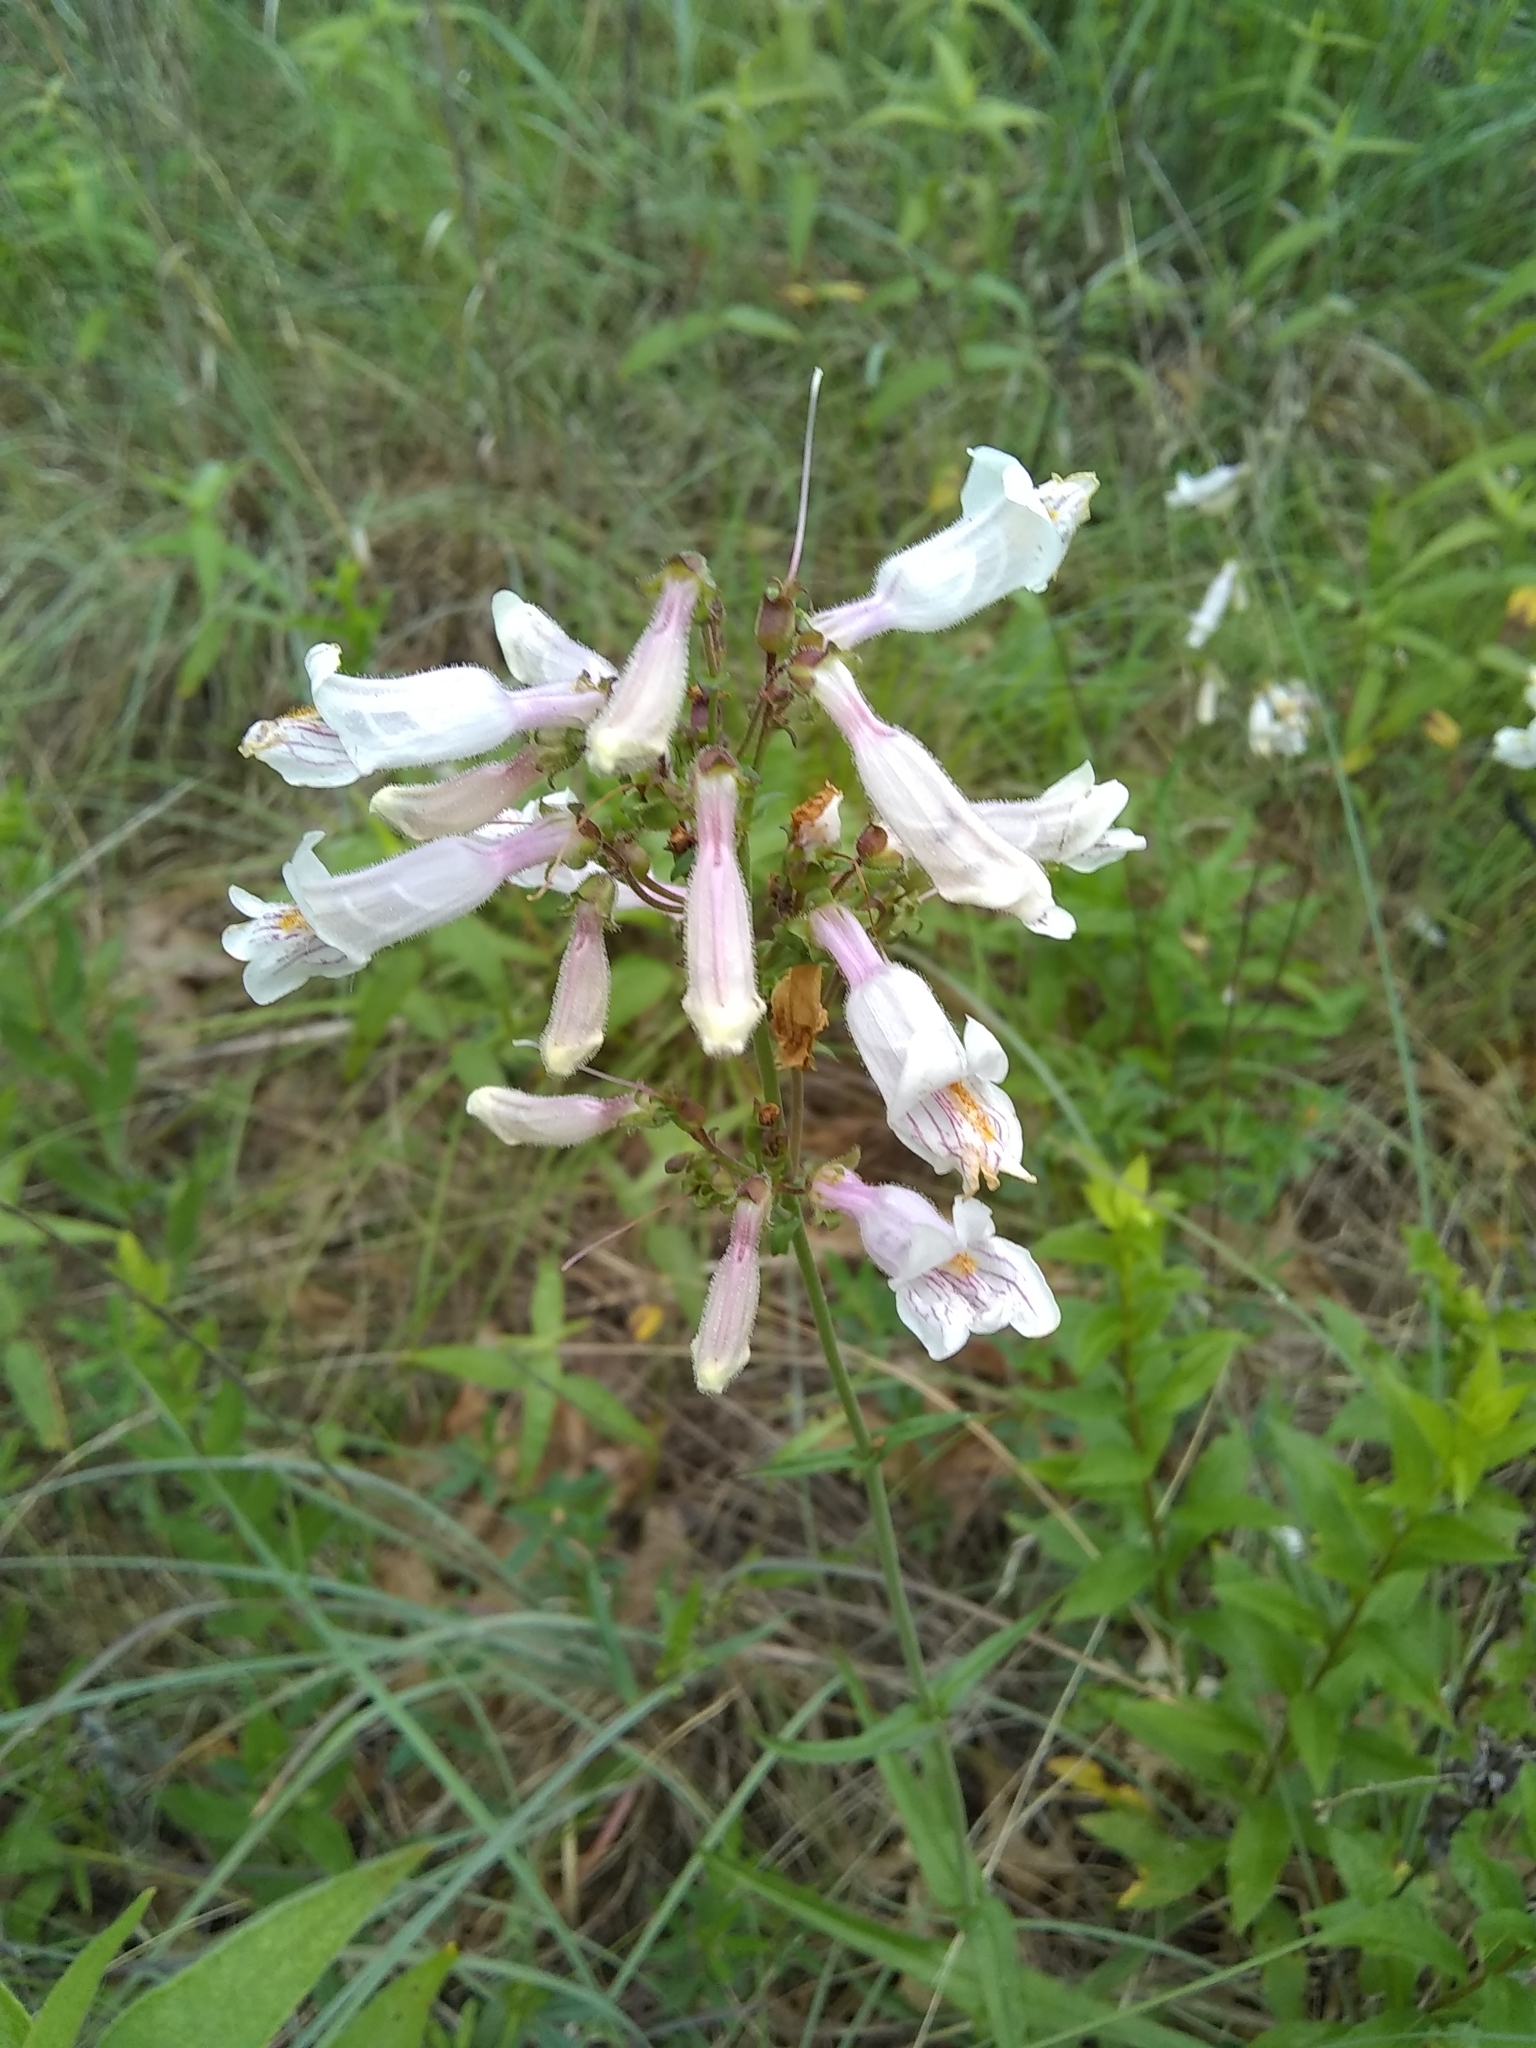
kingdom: Plantae
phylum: Tracheophyta
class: Magnoliopsida
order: Lamiales
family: Plantaginaceae
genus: Penstemon
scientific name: Penstemon laxiflorus
